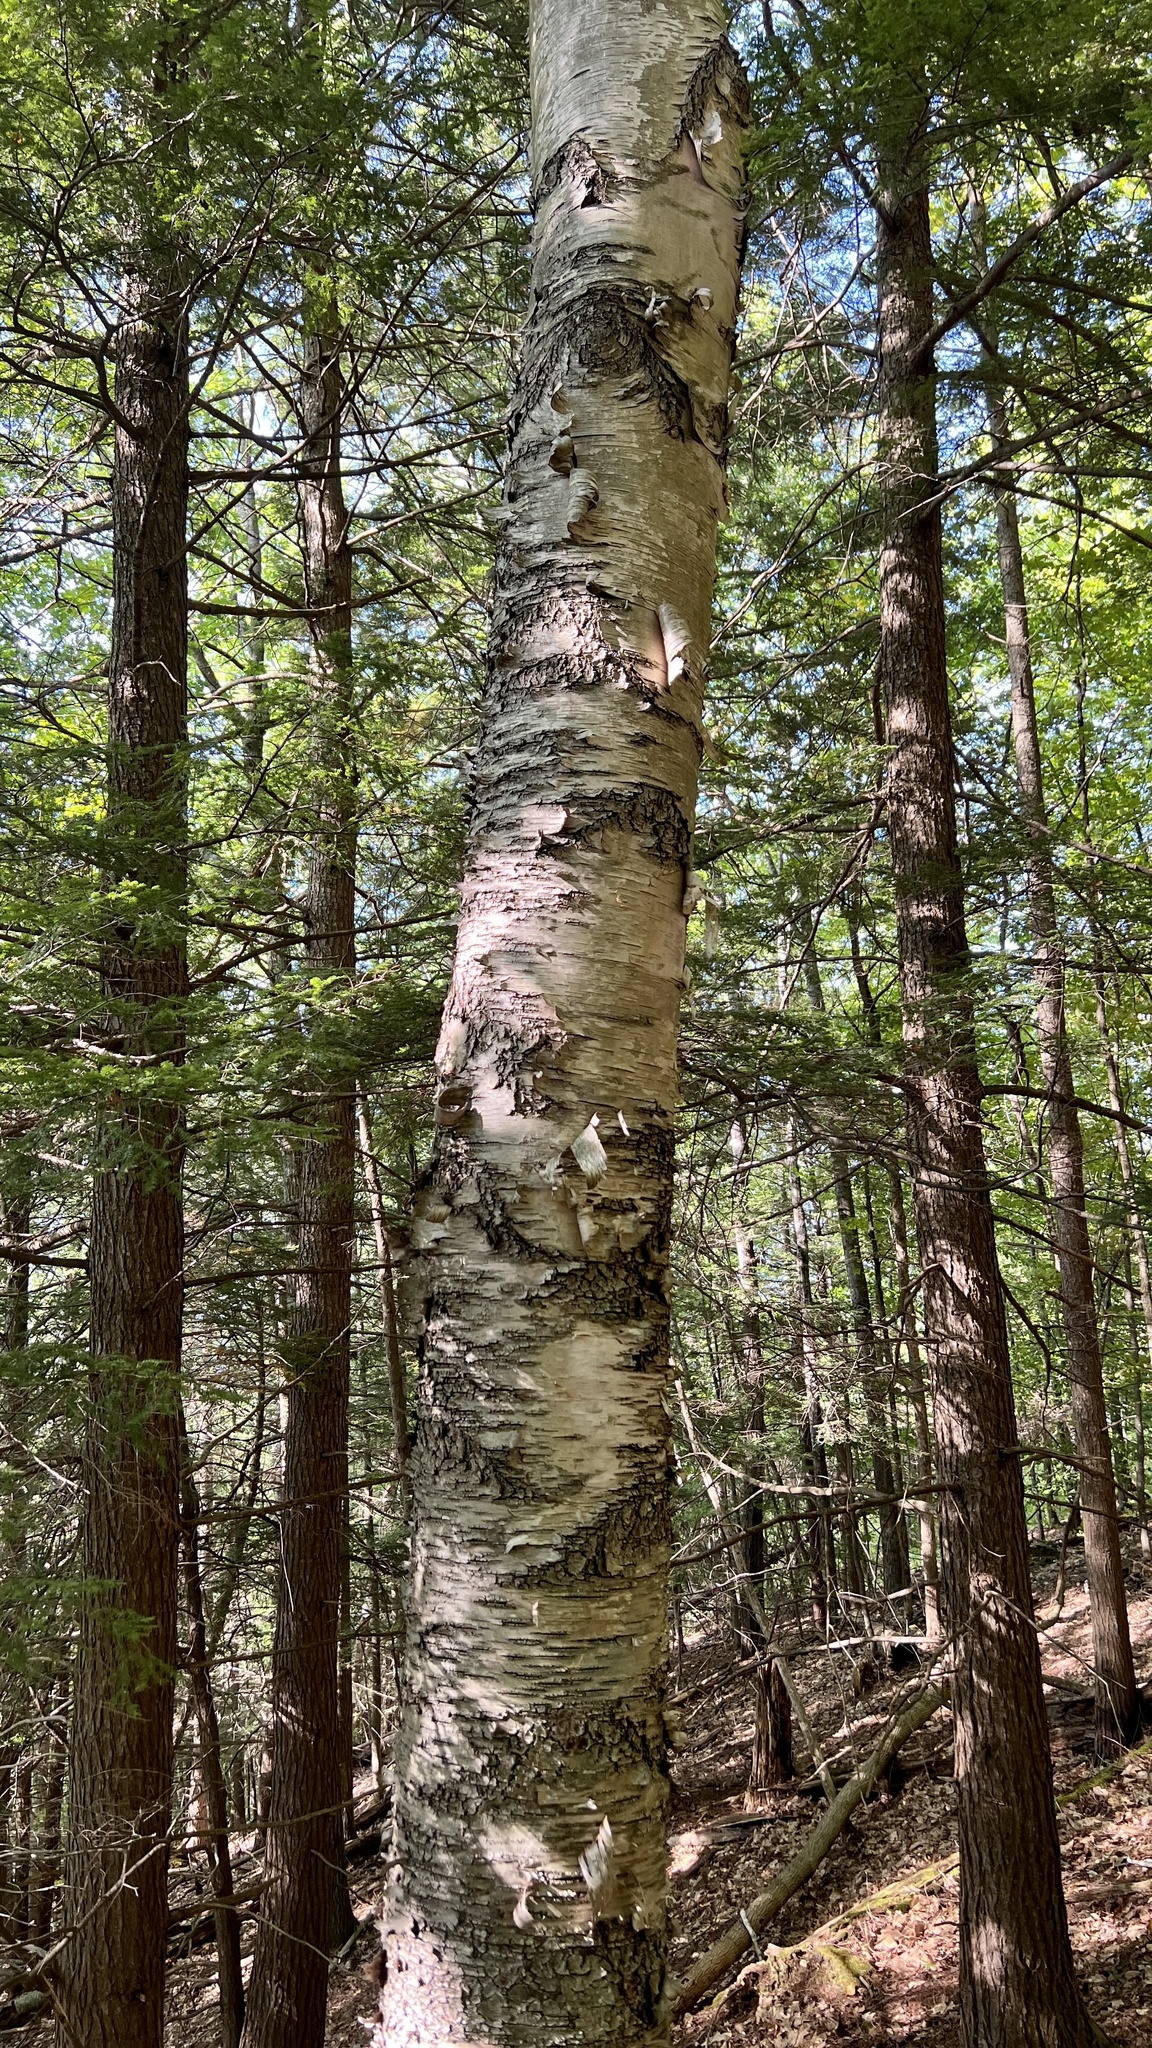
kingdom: Plantae
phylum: Tracheophyta
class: Magnoliopsida
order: Fagales
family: Betulaceae
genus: Betula
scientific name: Betula papyrifera
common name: Paper birch
